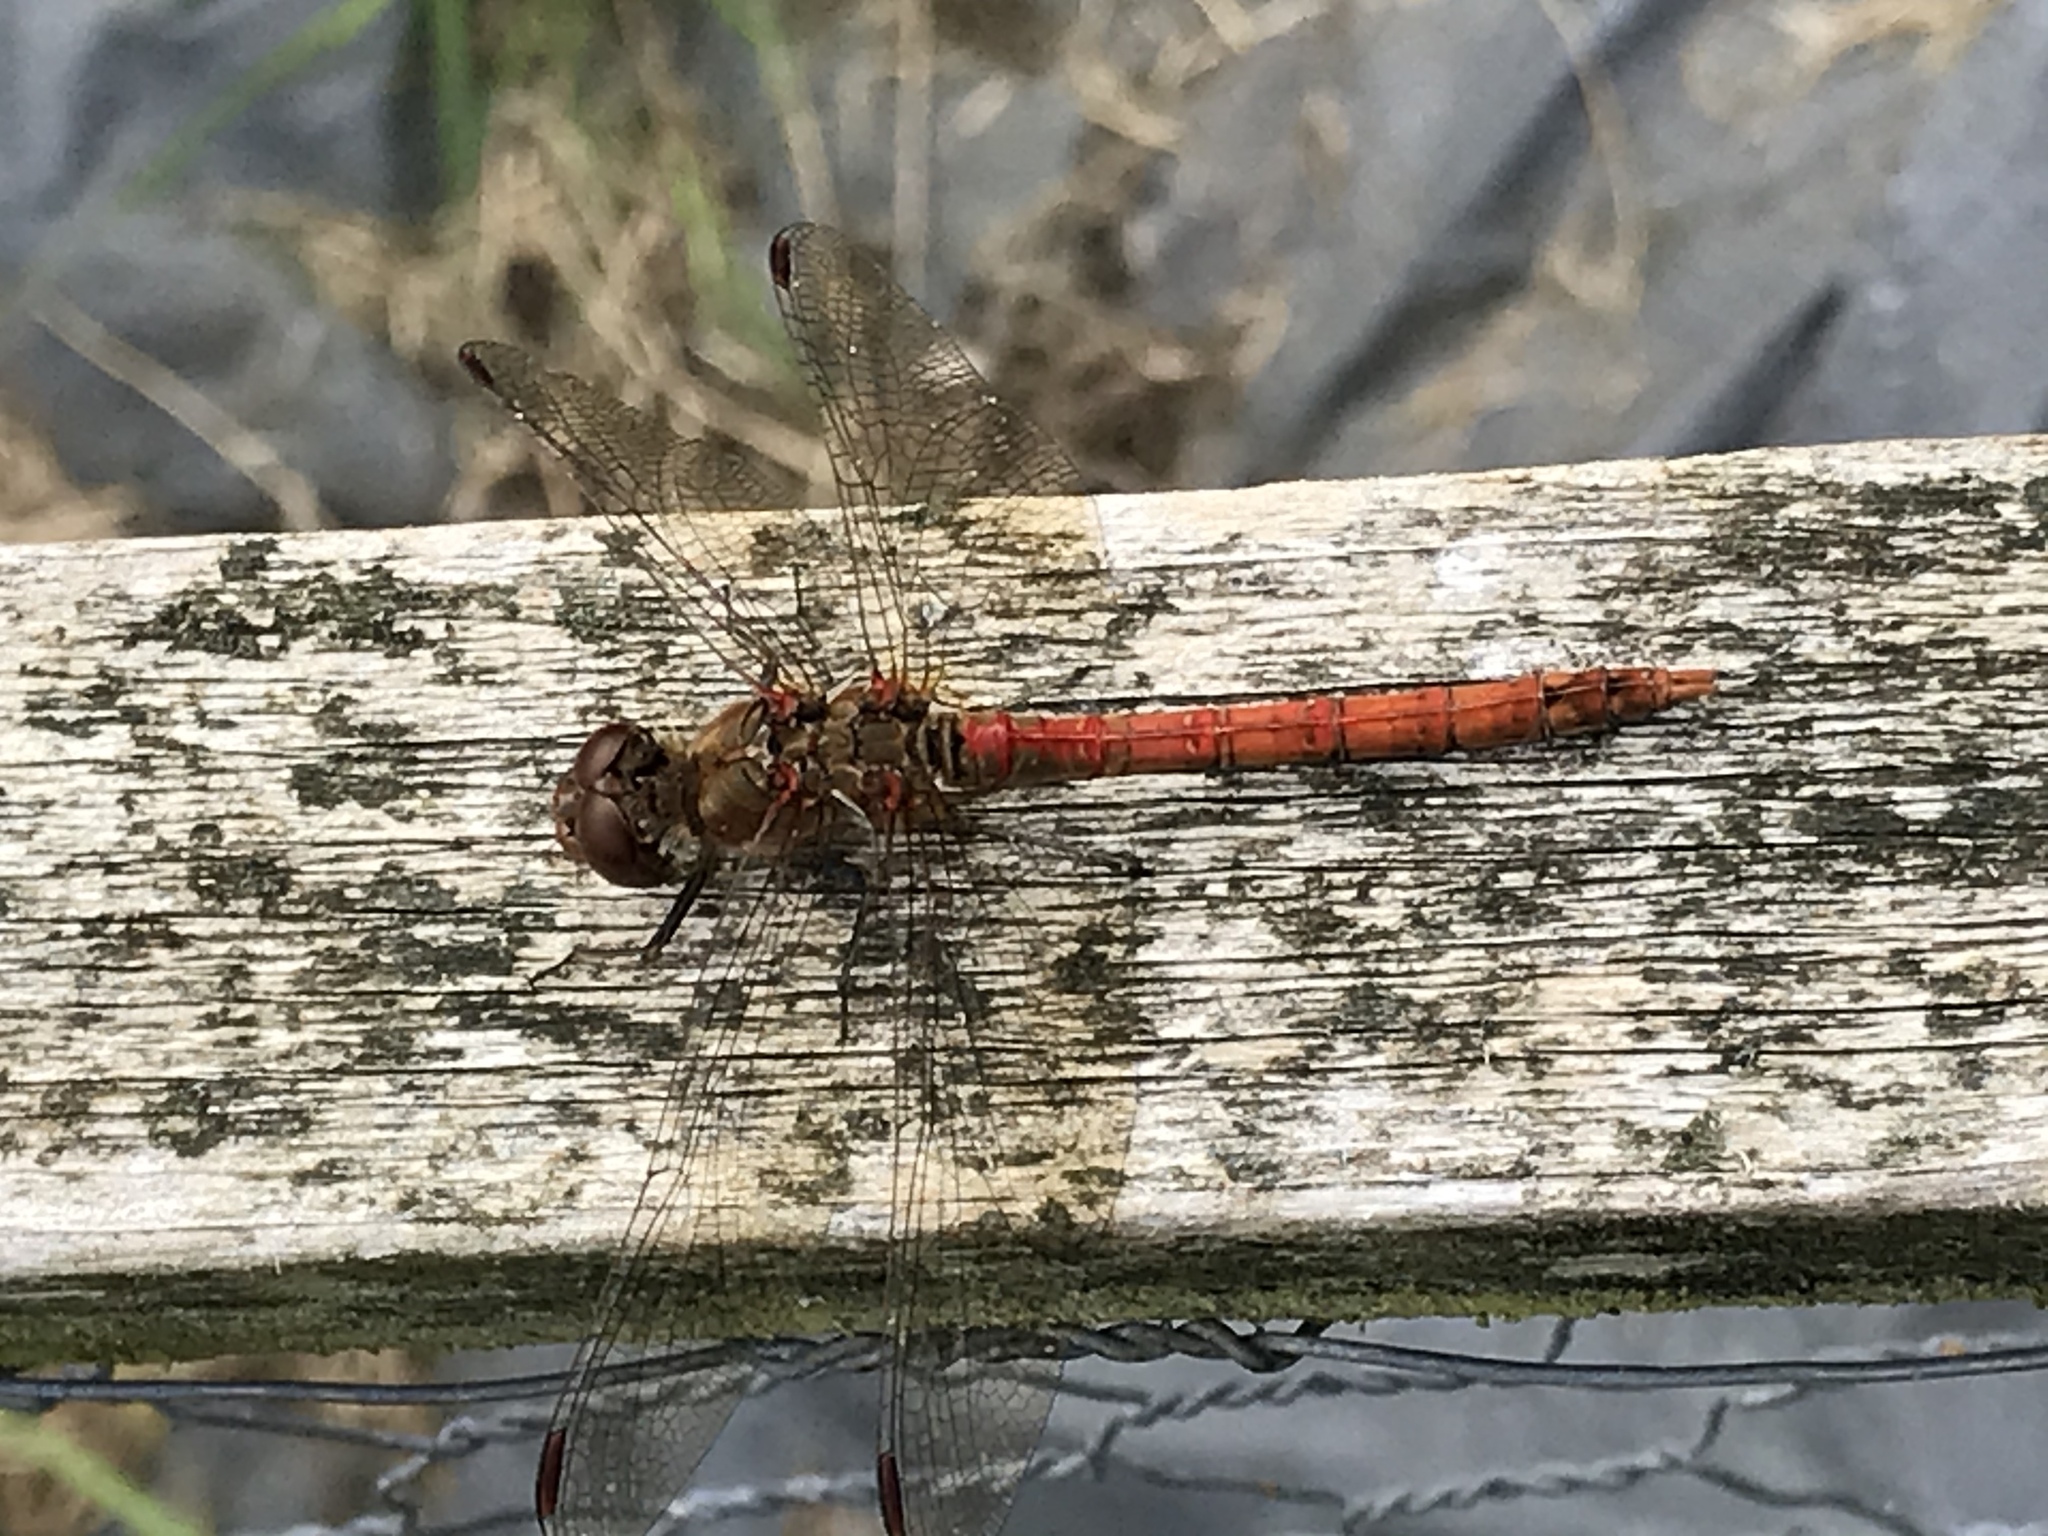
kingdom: Animalia
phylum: Arthropoda
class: Insecta
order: Odonata
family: Libellulidae
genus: Sympetrum
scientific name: Sympetrum striolatum
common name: Common darter
